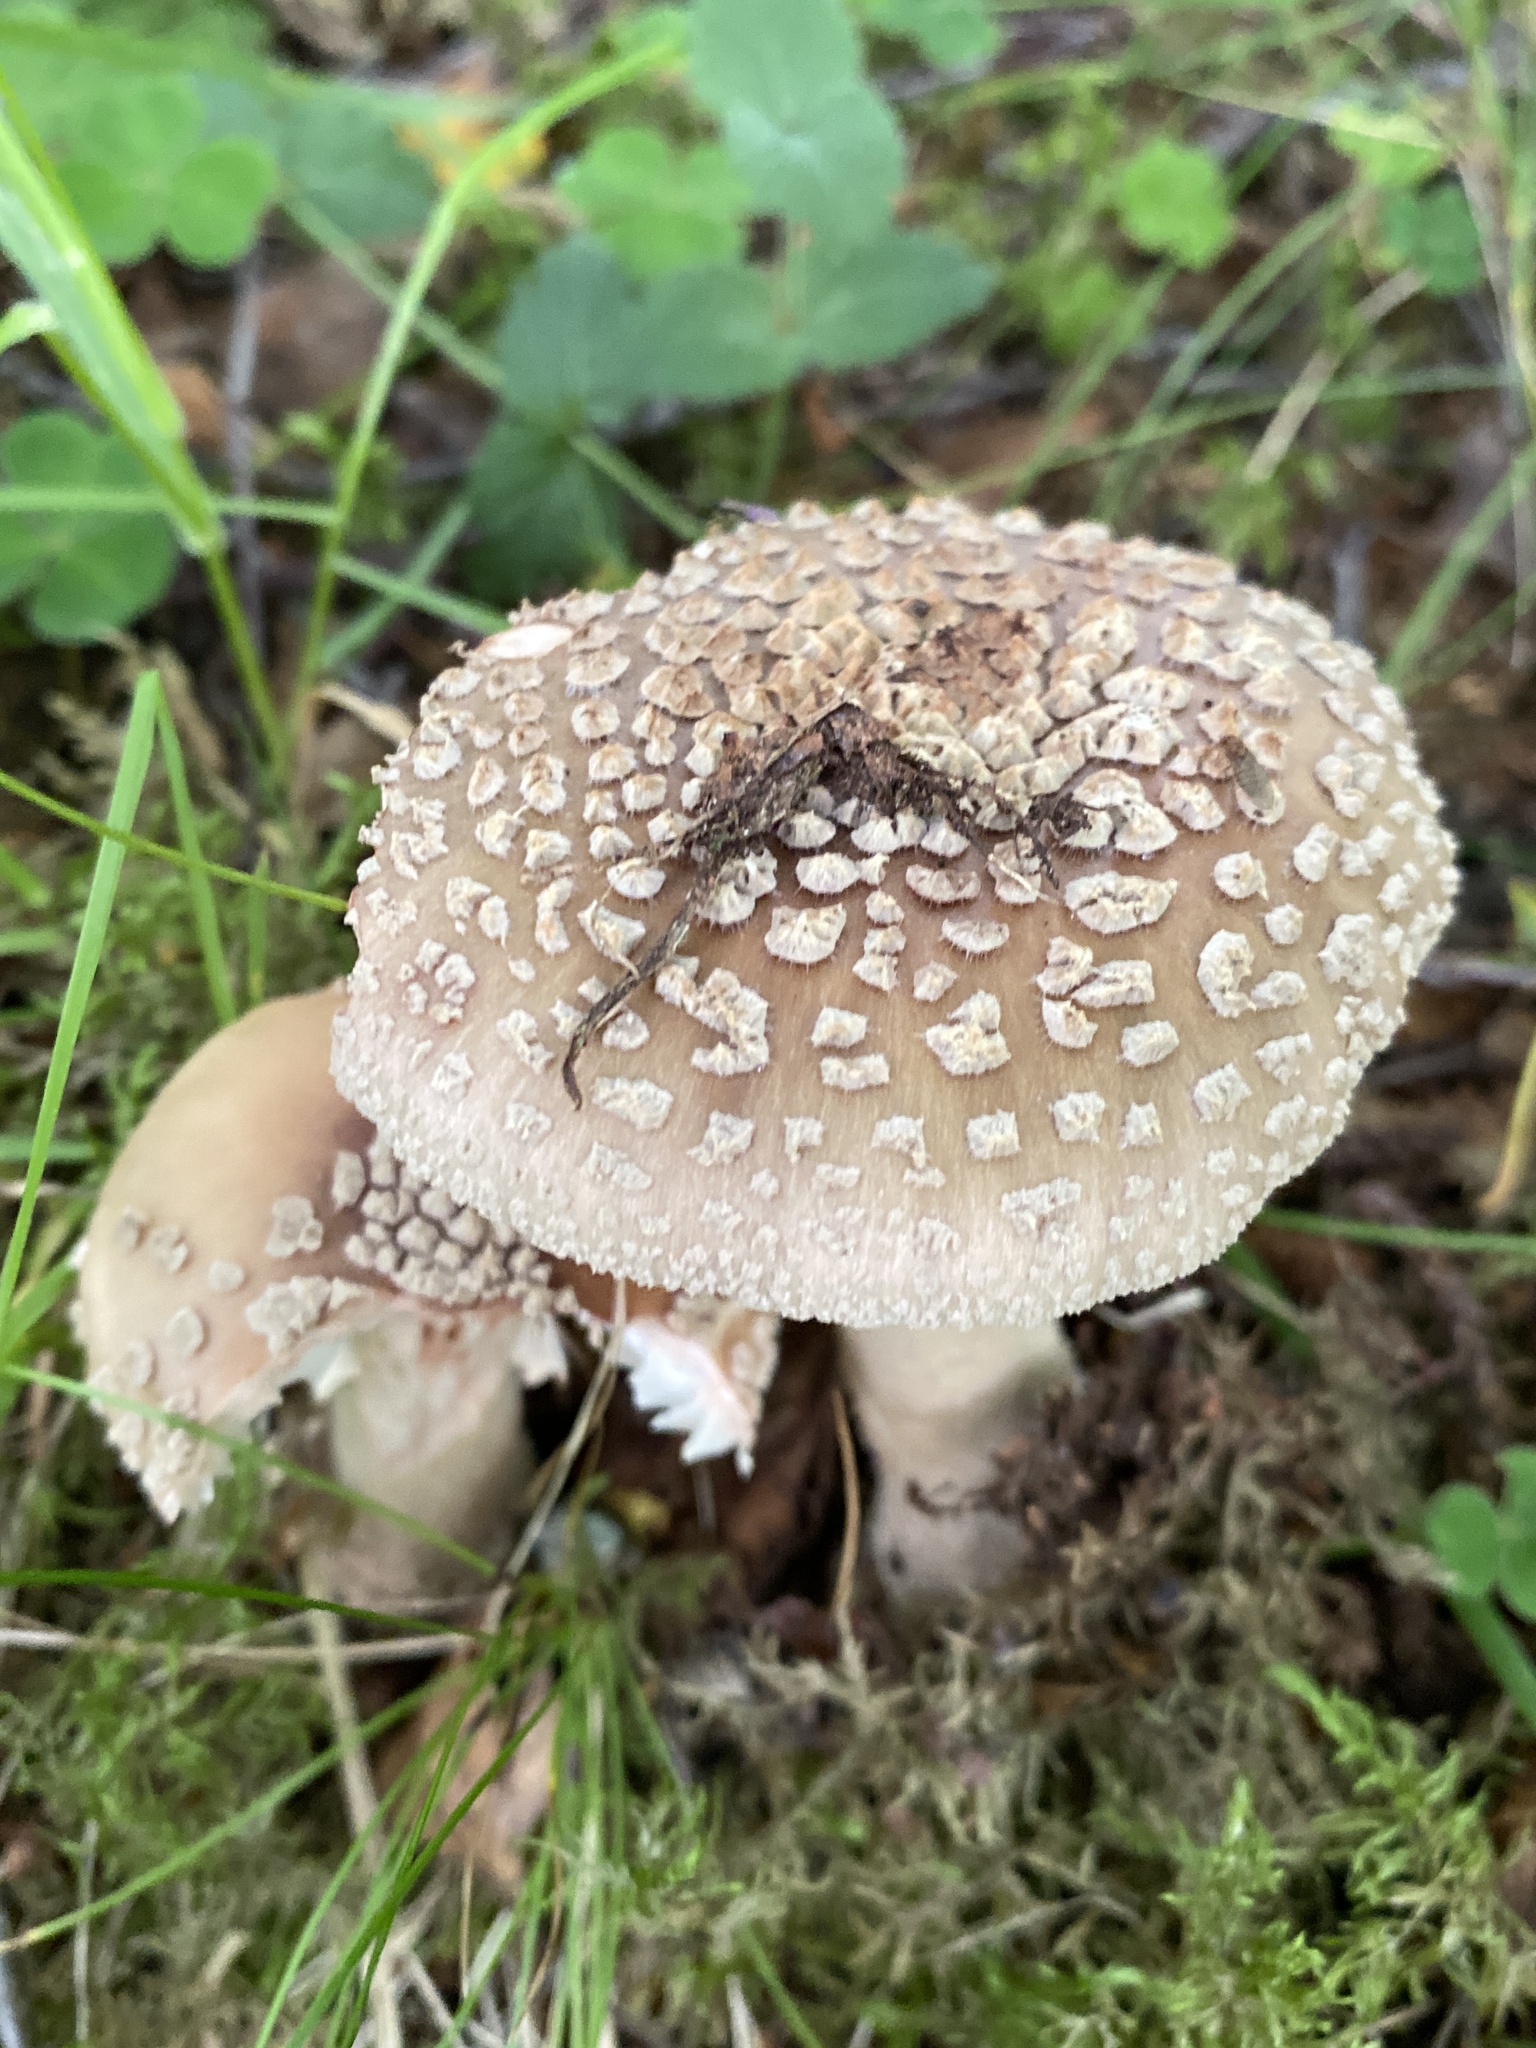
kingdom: Fungi
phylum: Basidiomycota
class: Agaricomycetes
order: Agaricales
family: Amanitaceae
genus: Amanita
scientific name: Amanita rubescens
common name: Blusher
